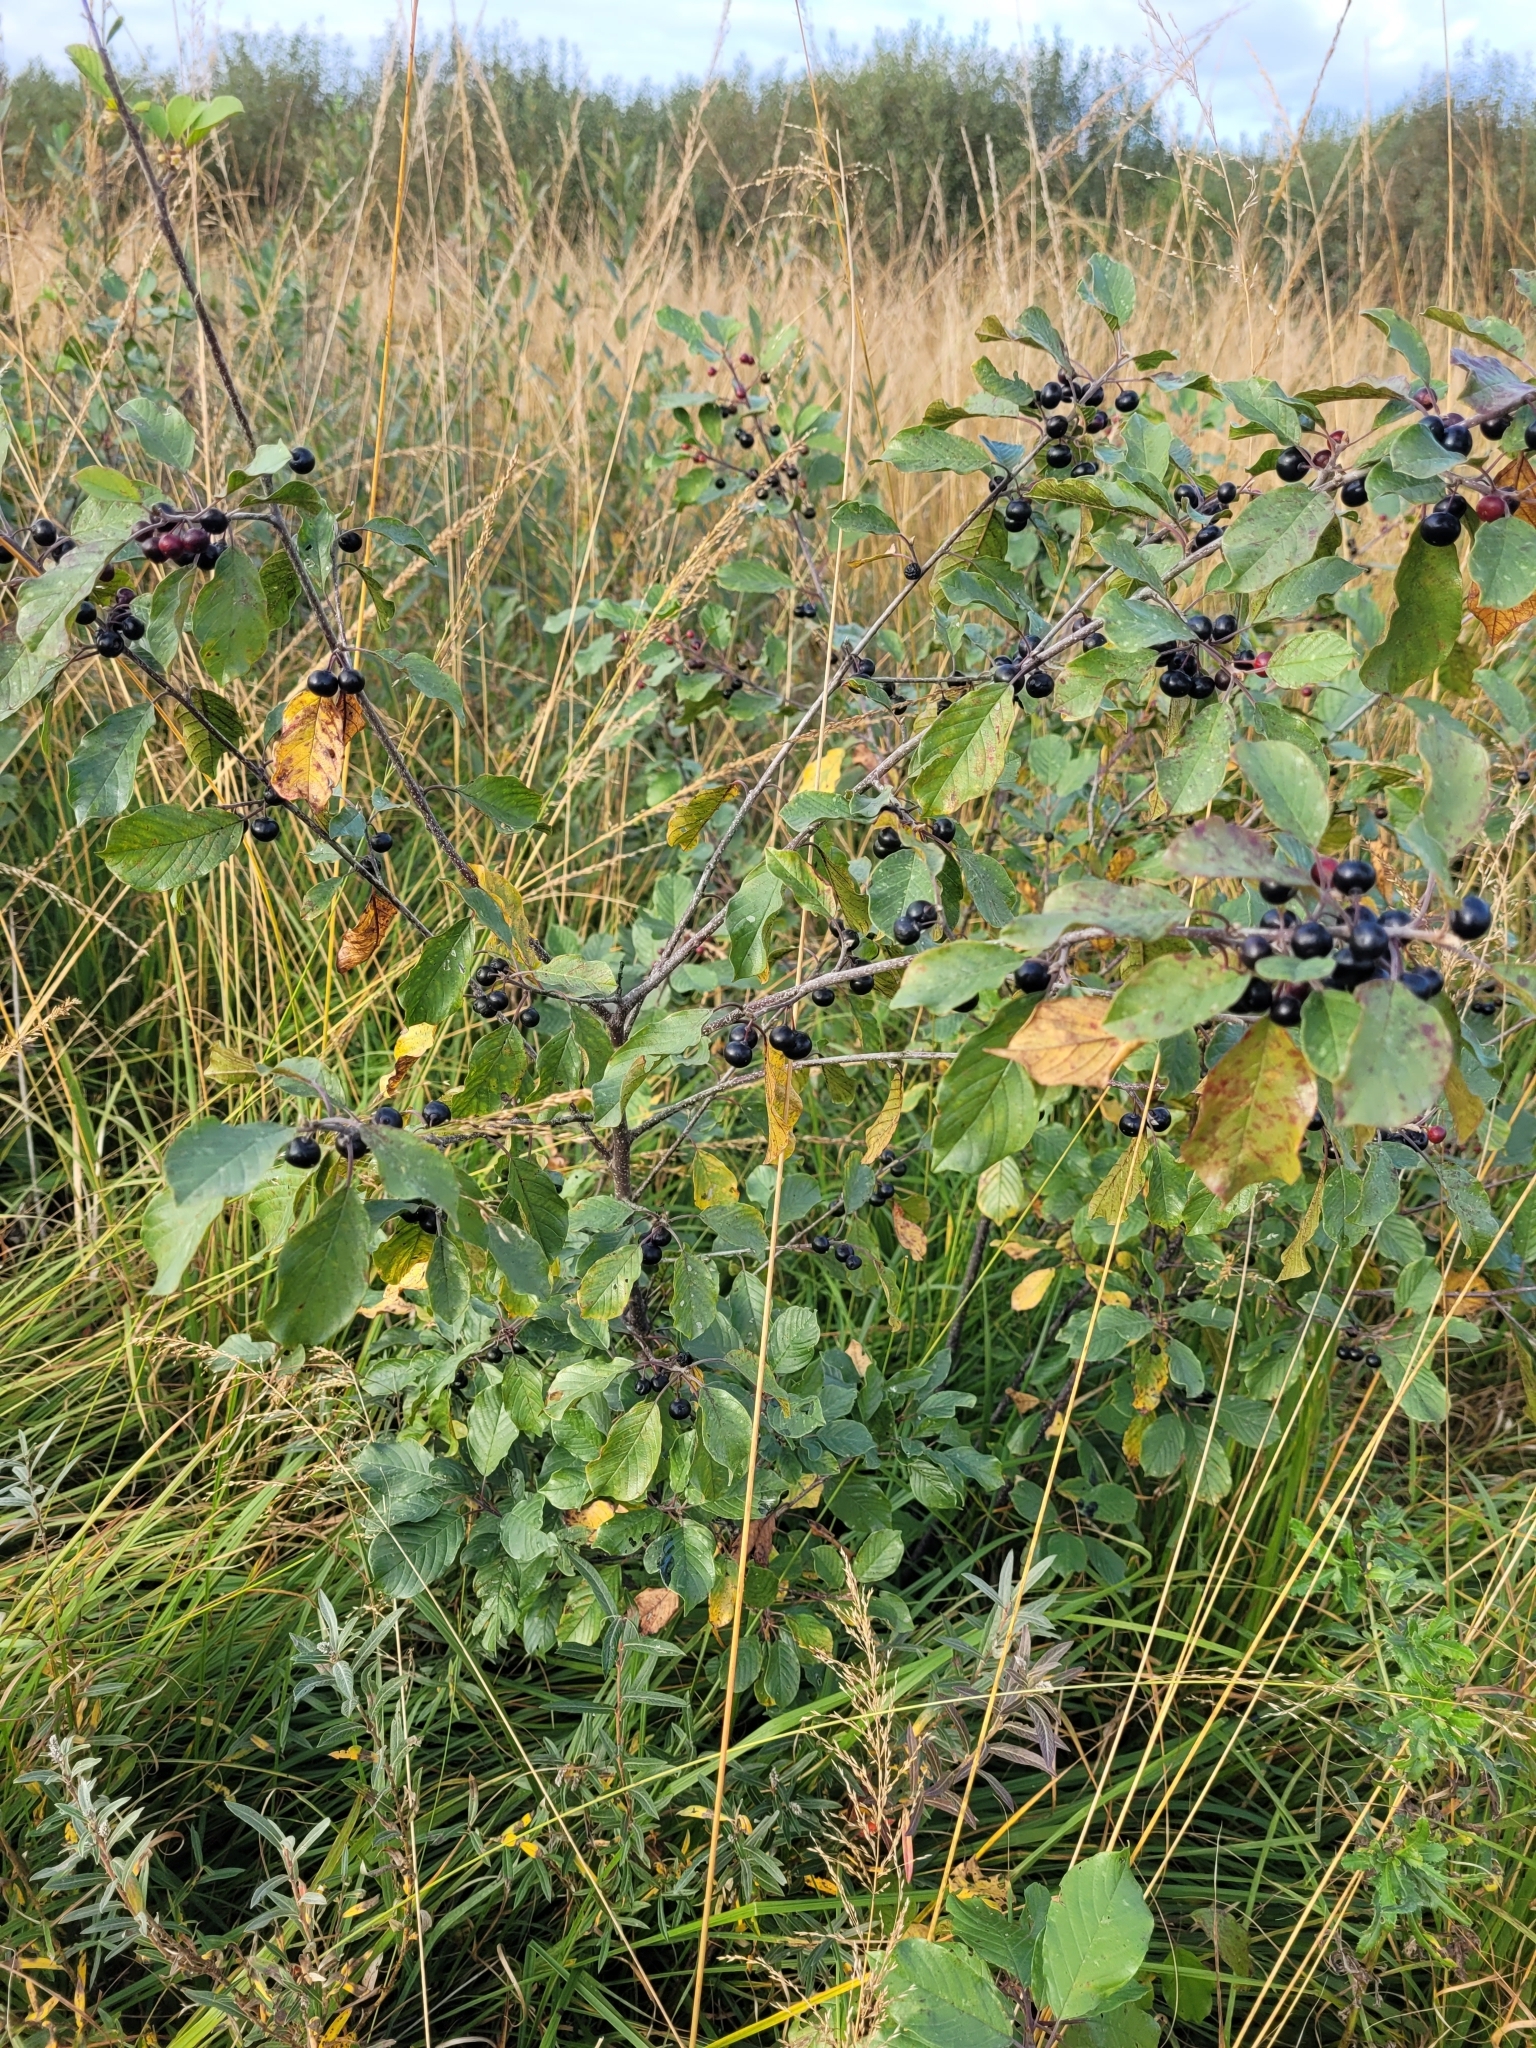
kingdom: Plantae
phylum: Tracheophyta
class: Magnoliopsida
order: Rosales
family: Rhamnaceae
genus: Frangula
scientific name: Frangula alnus
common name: Alder buckthorn
